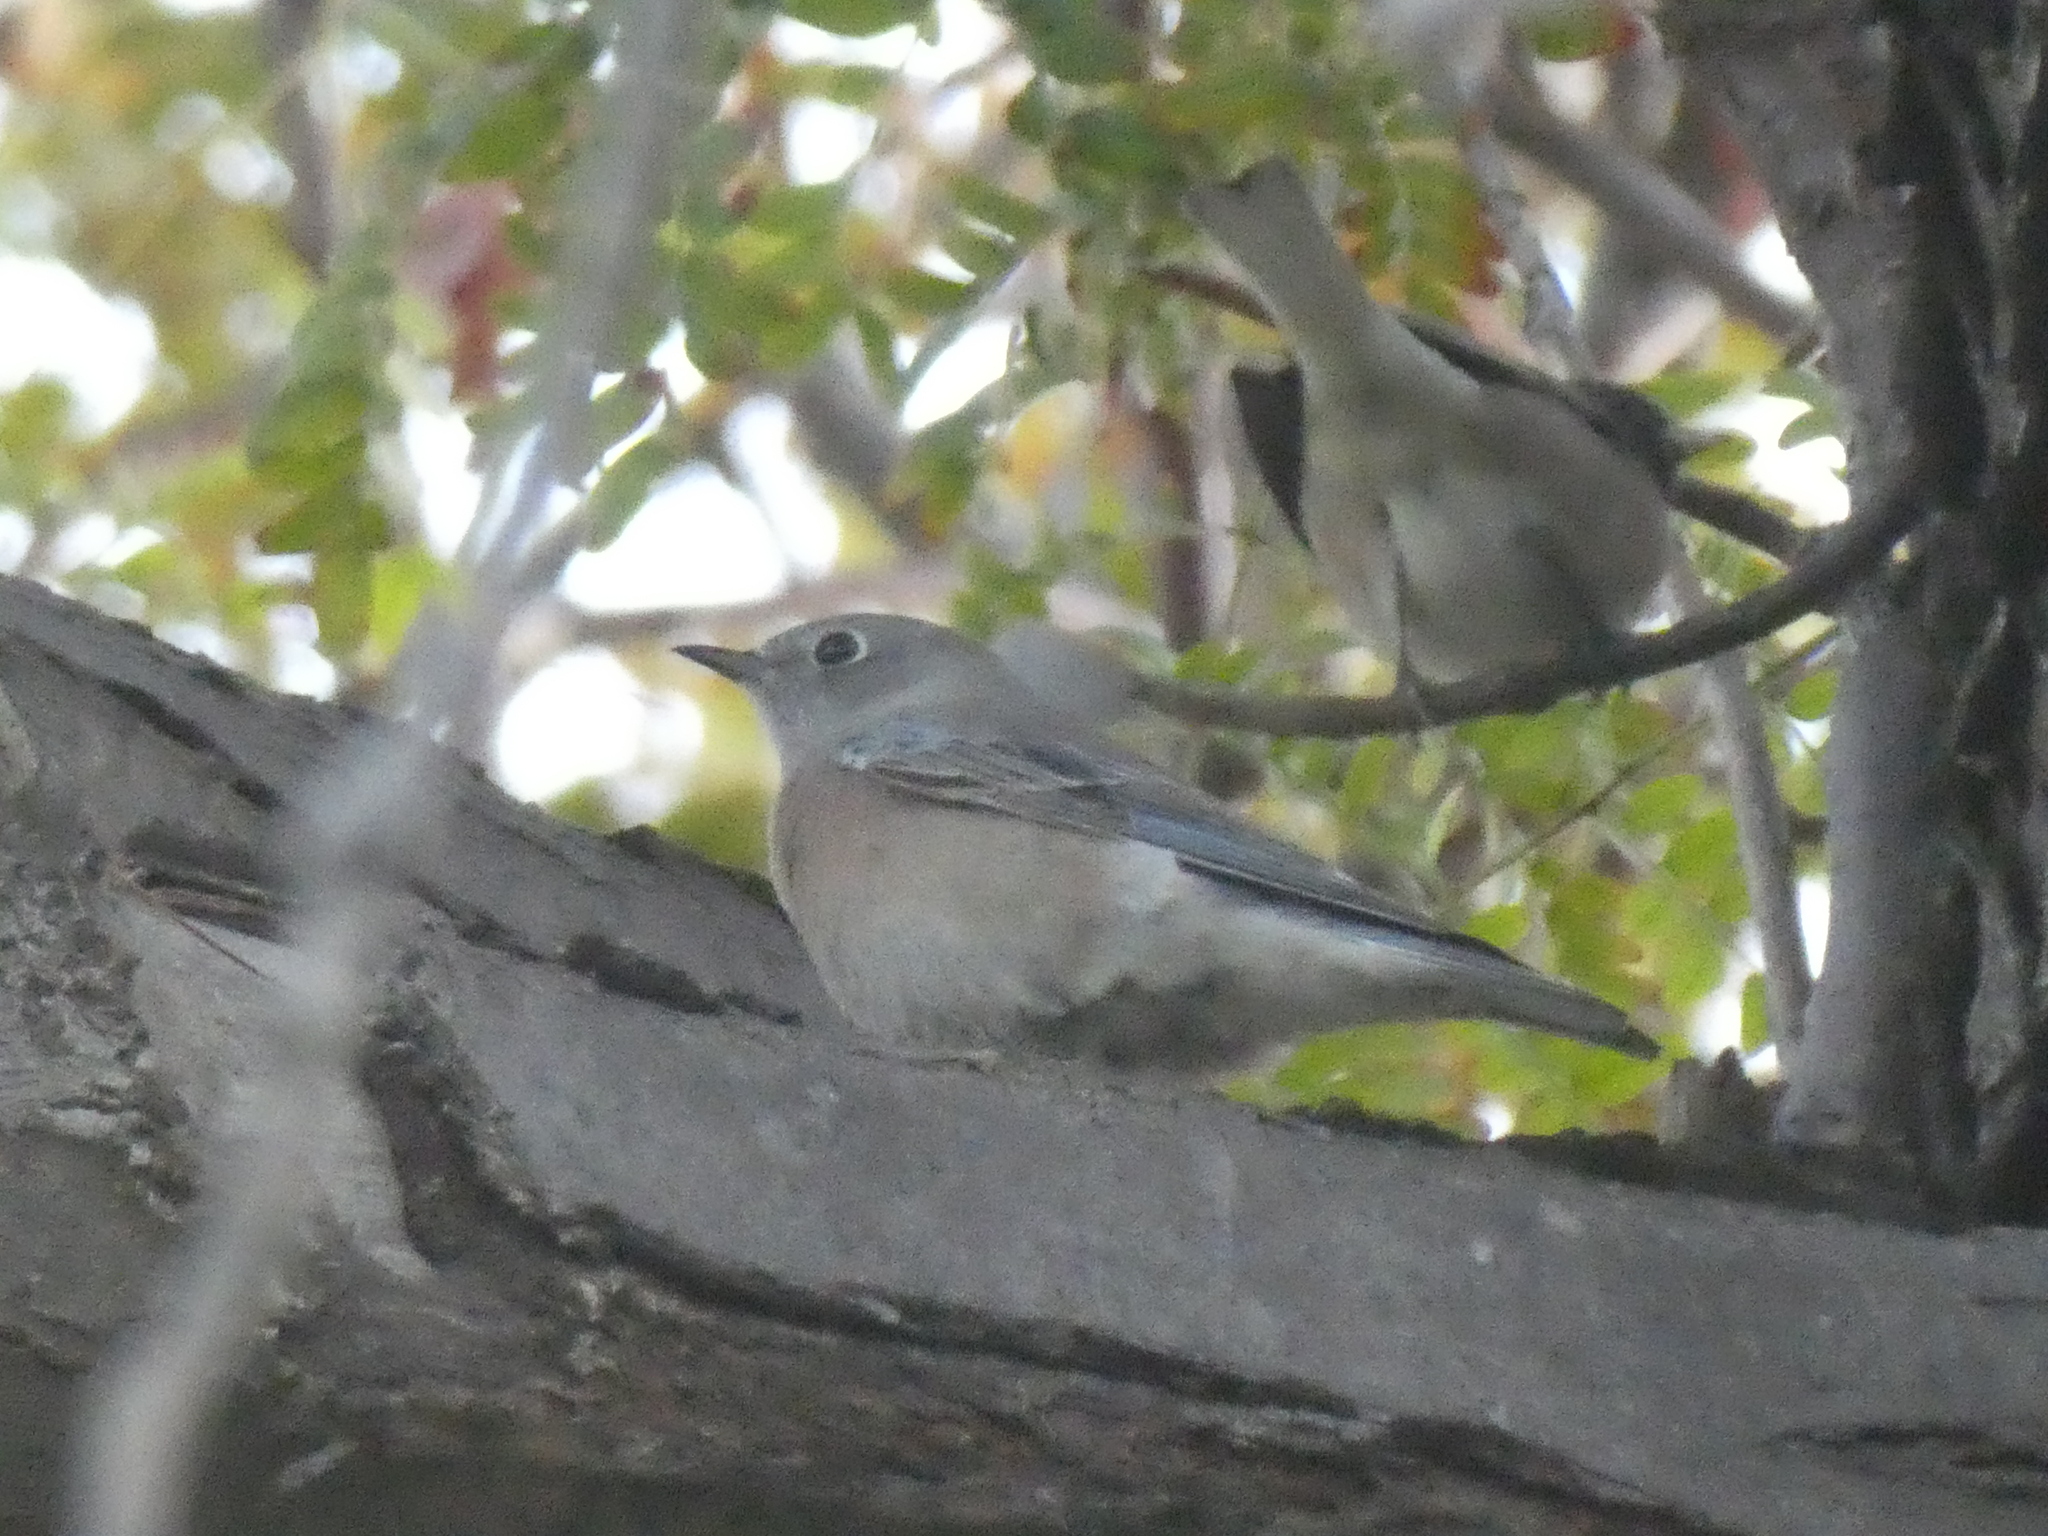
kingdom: Animalia
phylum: Chordata
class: Aves
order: Passeriformes
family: Turdidae
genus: Sialia
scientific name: Sialia mexicana
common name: Western bluebird
